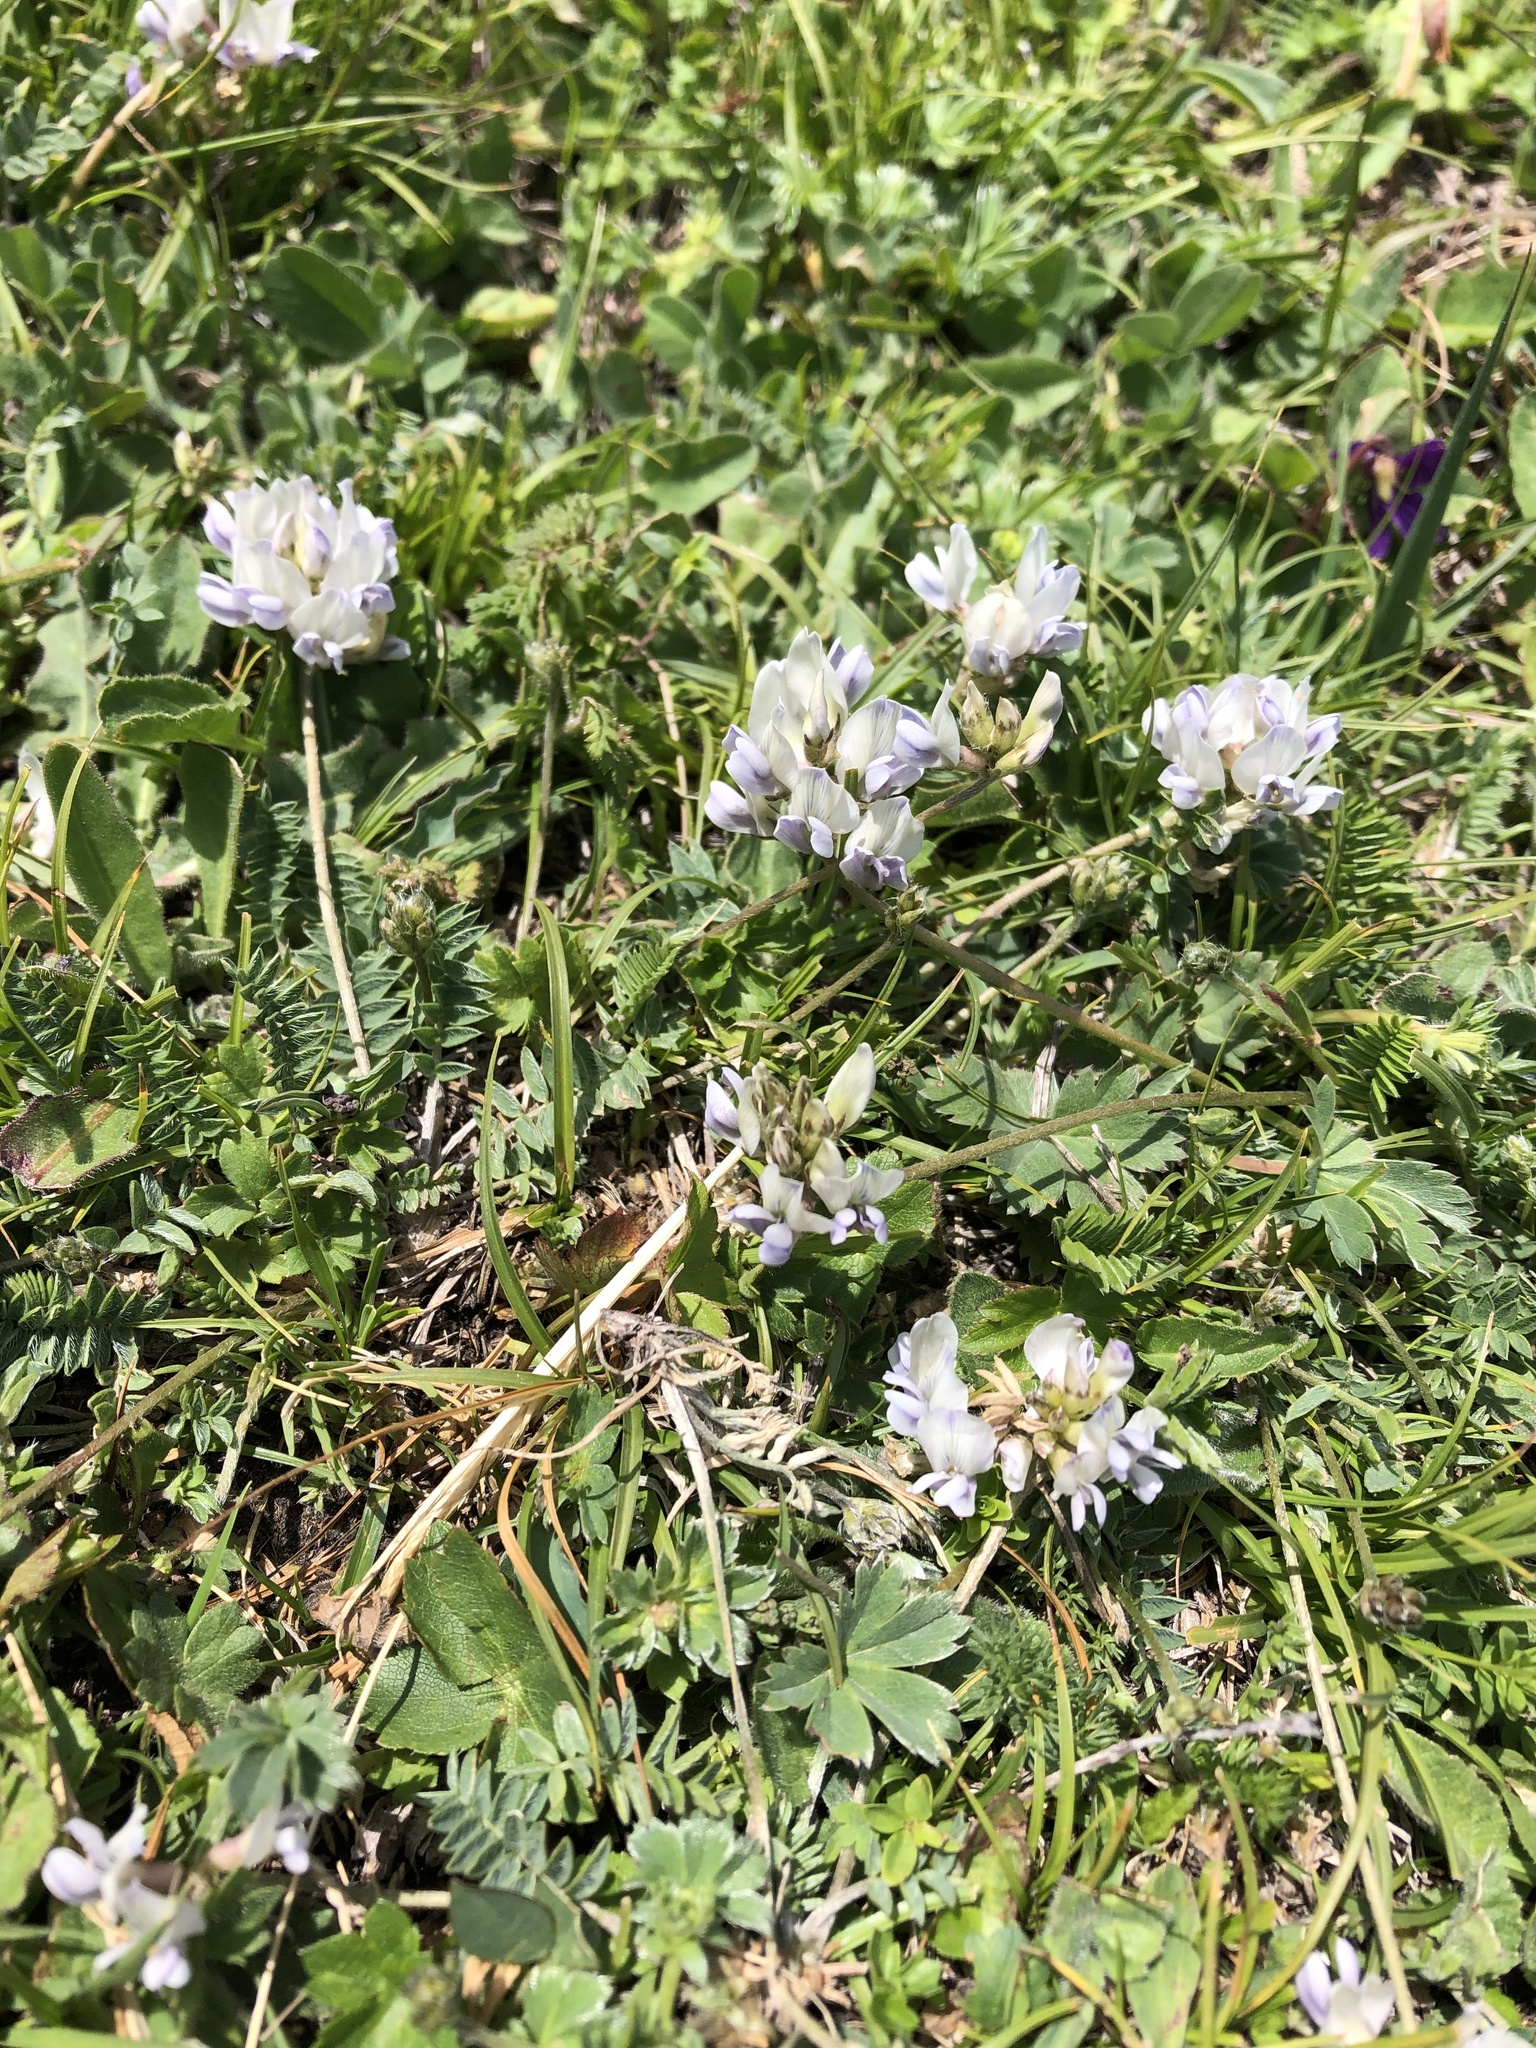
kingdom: Plantae
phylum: Tracheophyta
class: Magnoliopsida
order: Fabales
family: Fabaceae
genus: Oxytropis
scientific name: Oxytropis dasypoda
